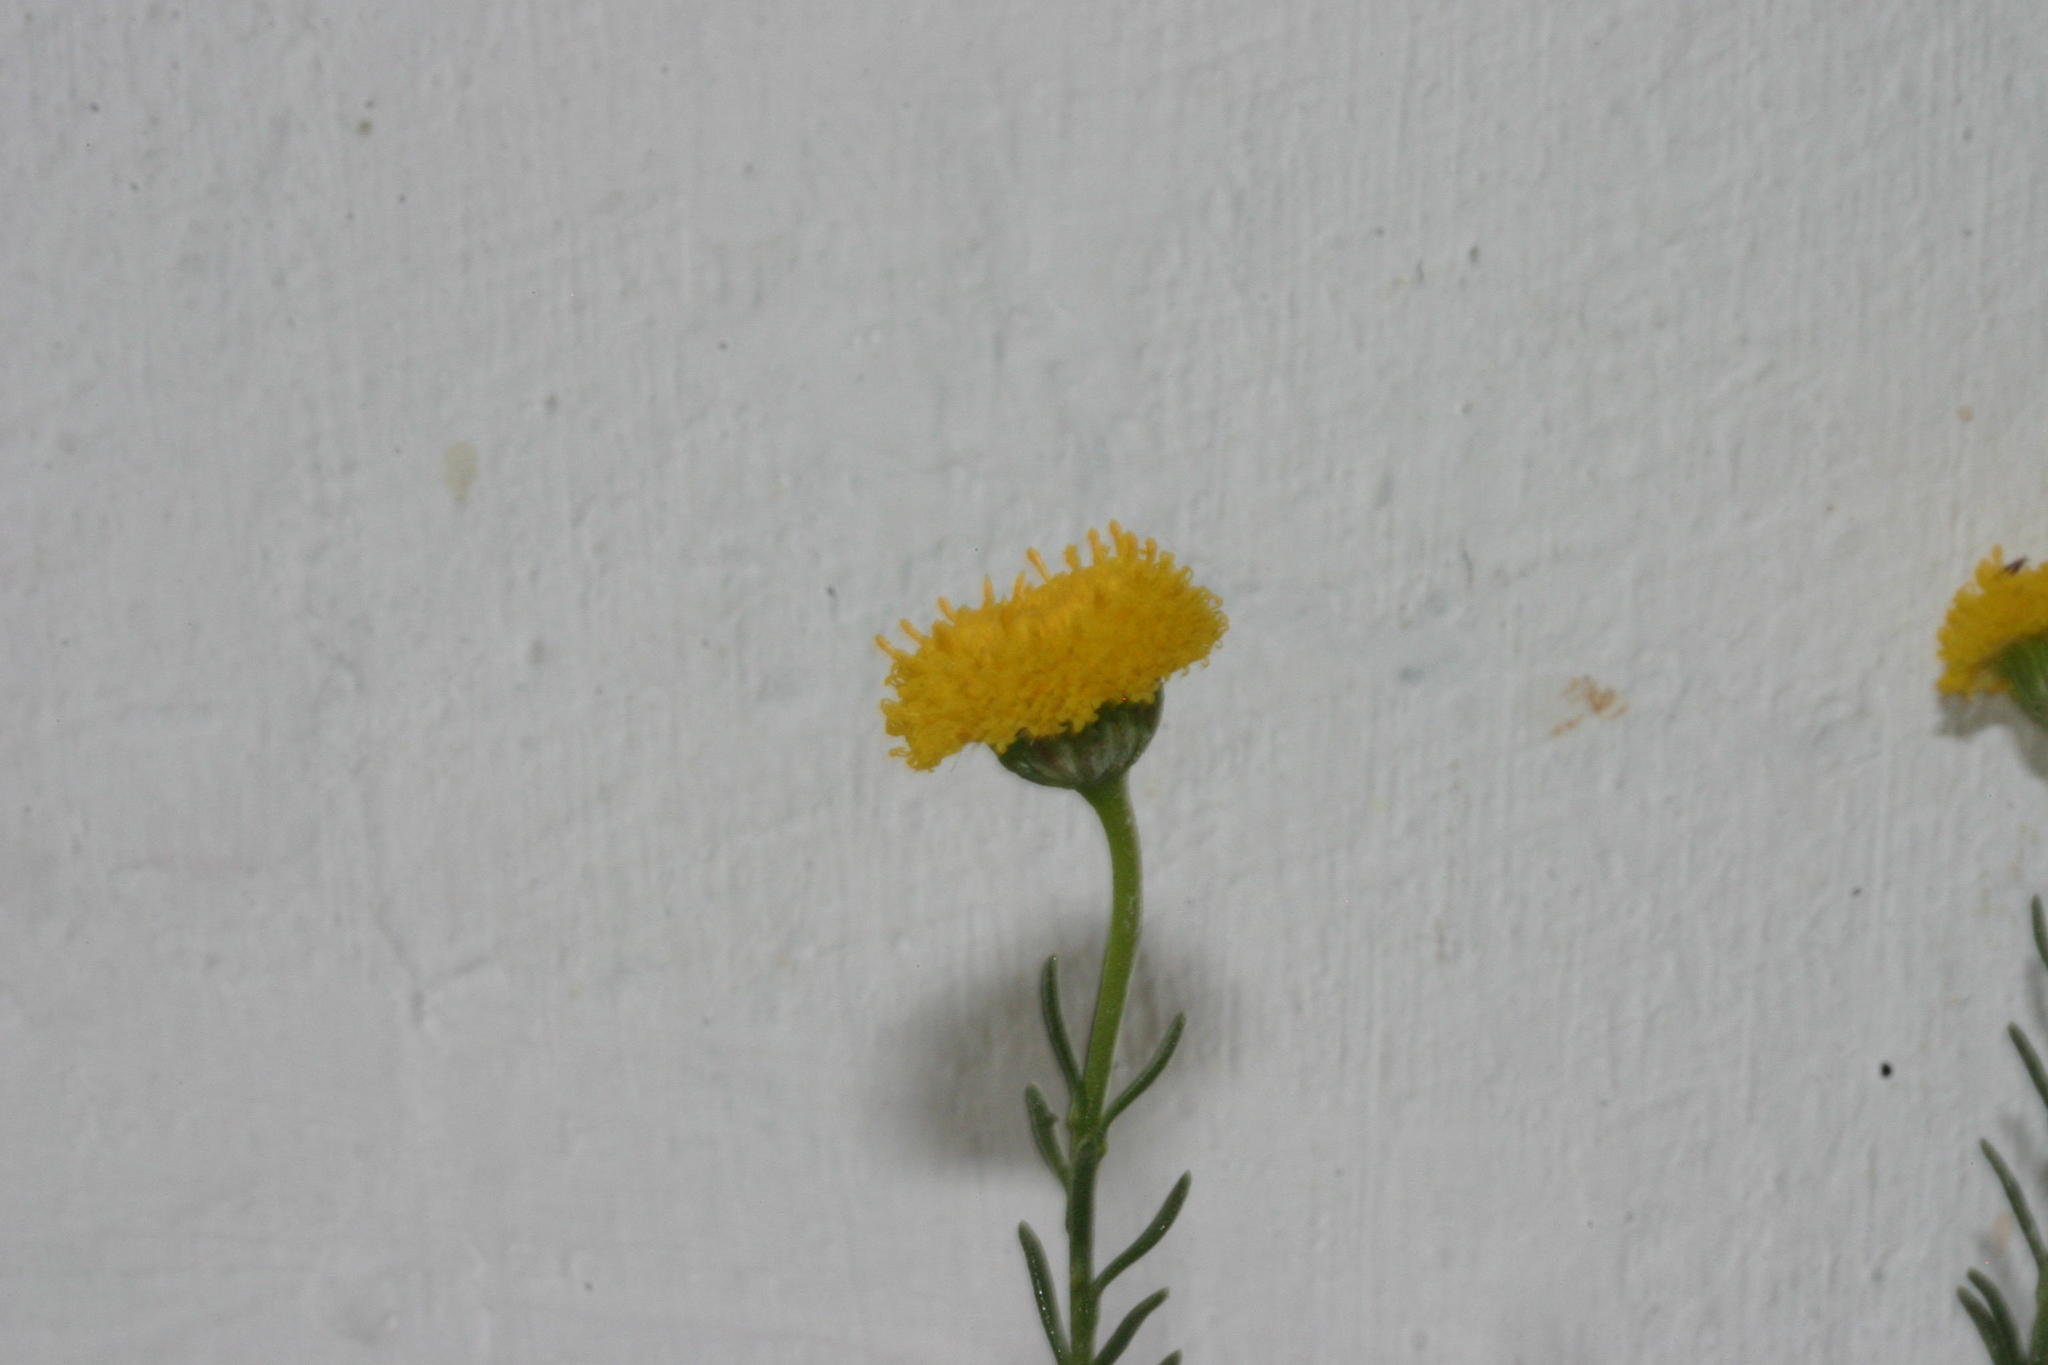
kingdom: Plantae
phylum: Tracheophyta
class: Magnoliopsida
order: Asterales
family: Asteraceae
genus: Chrysocoma
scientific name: Chrysocoma valida
